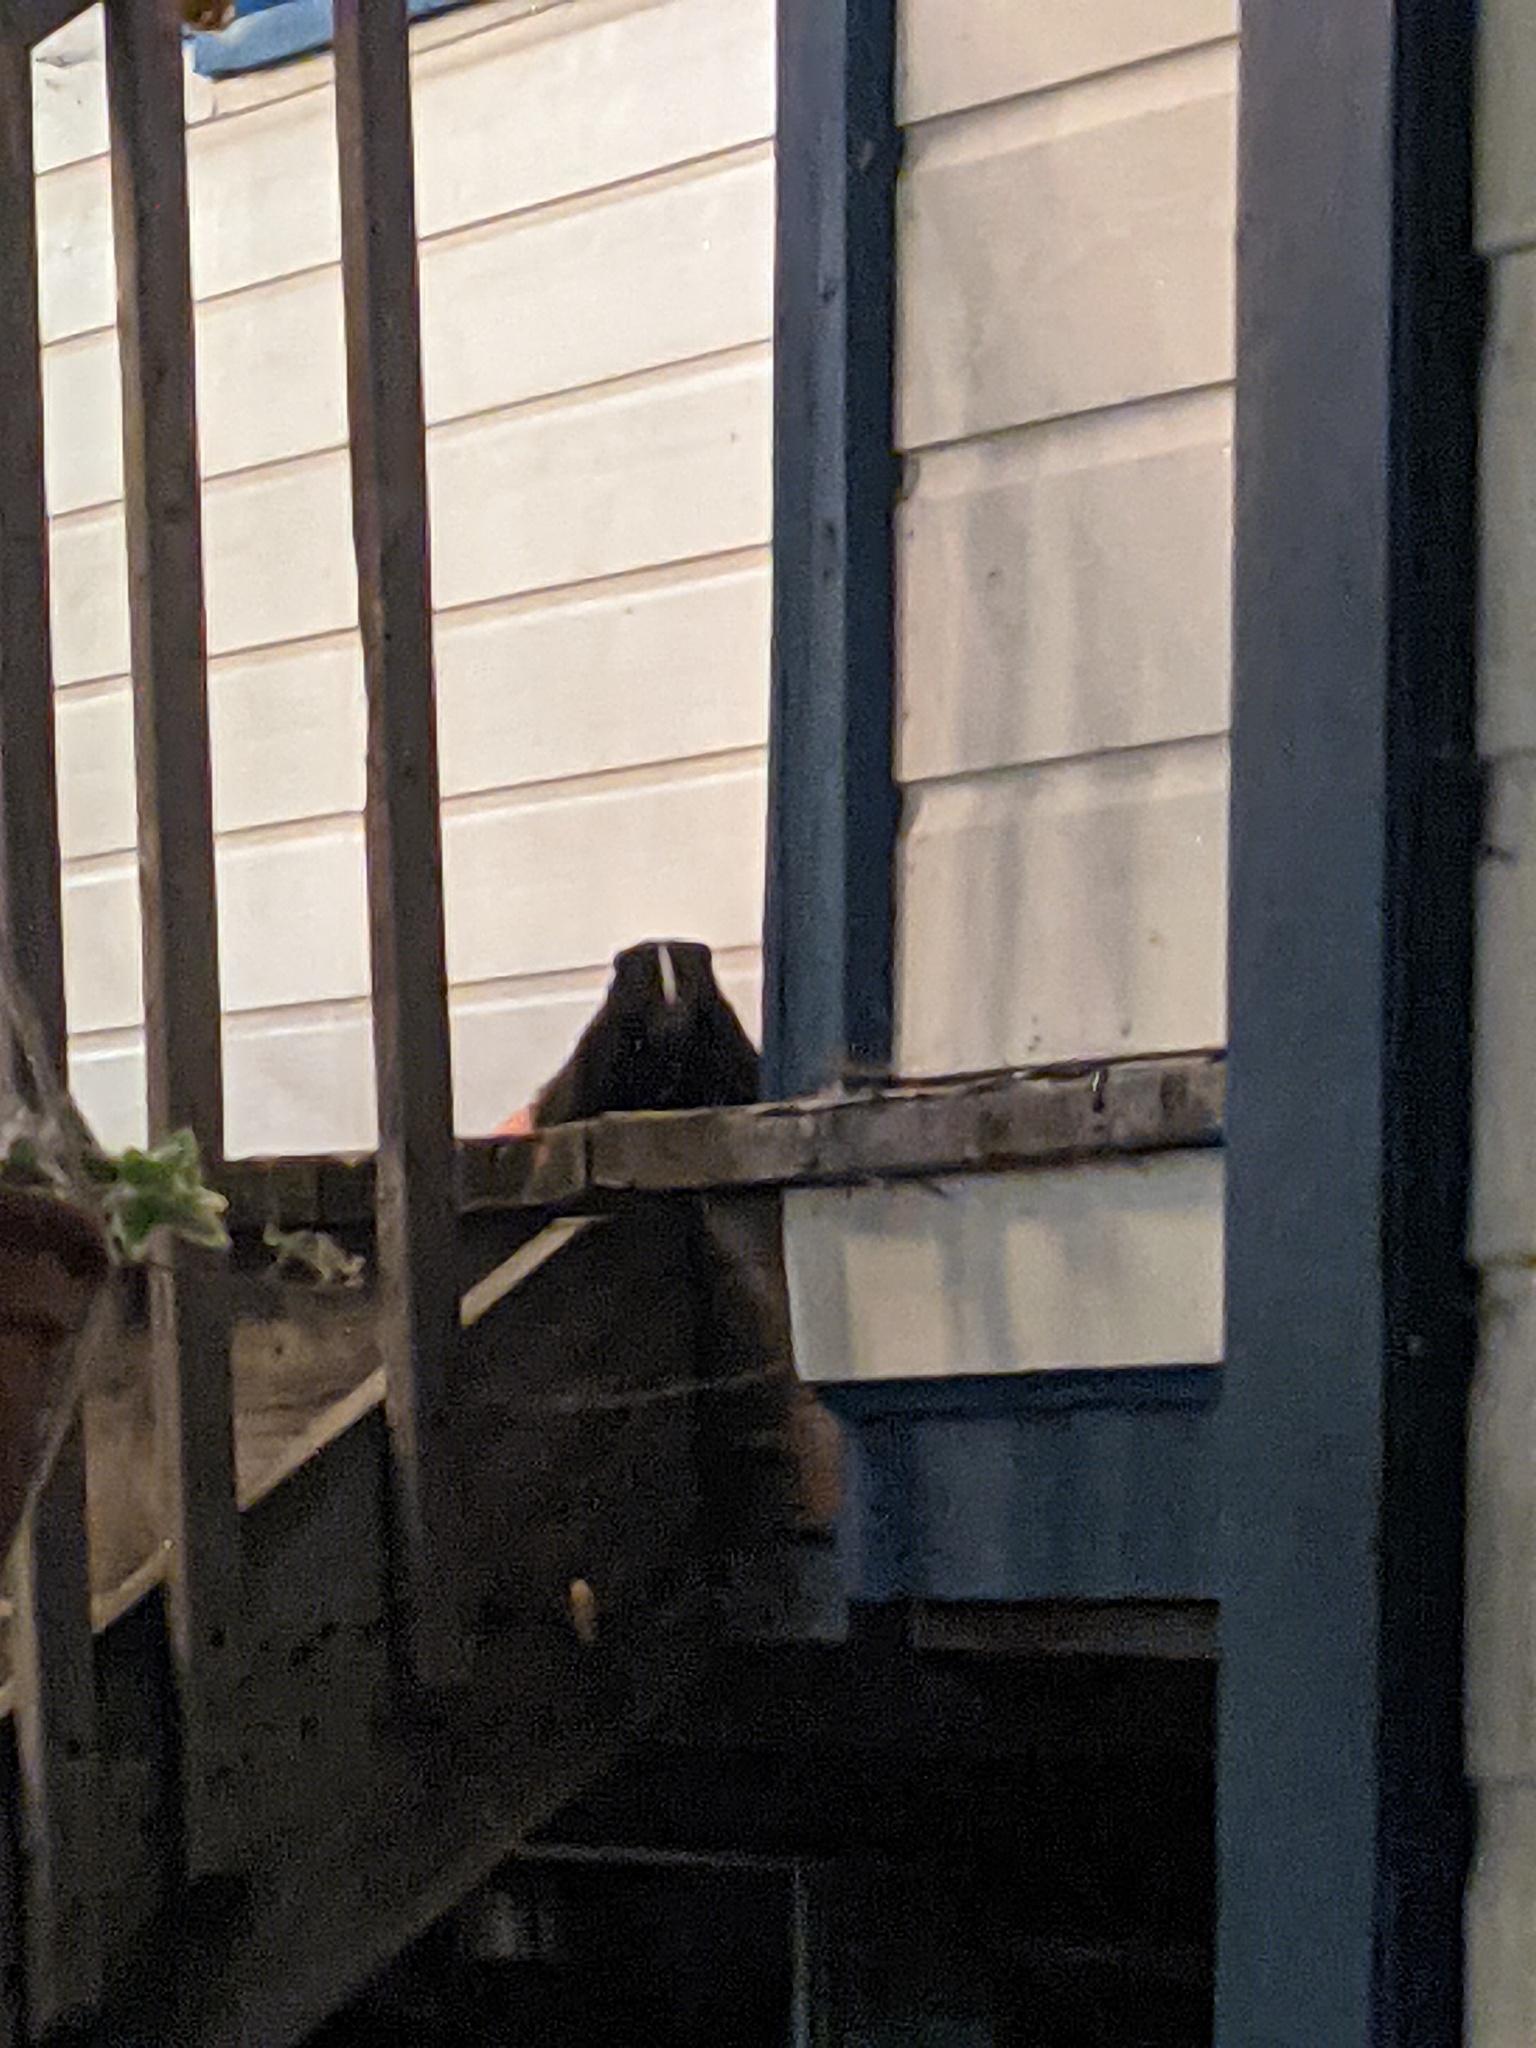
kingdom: Animalia
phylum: Chordata
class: Mammalia
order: Carnivora
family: Mephitidae
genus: Mephitis
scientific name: Mephitis mephitis
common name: Striped skunk
